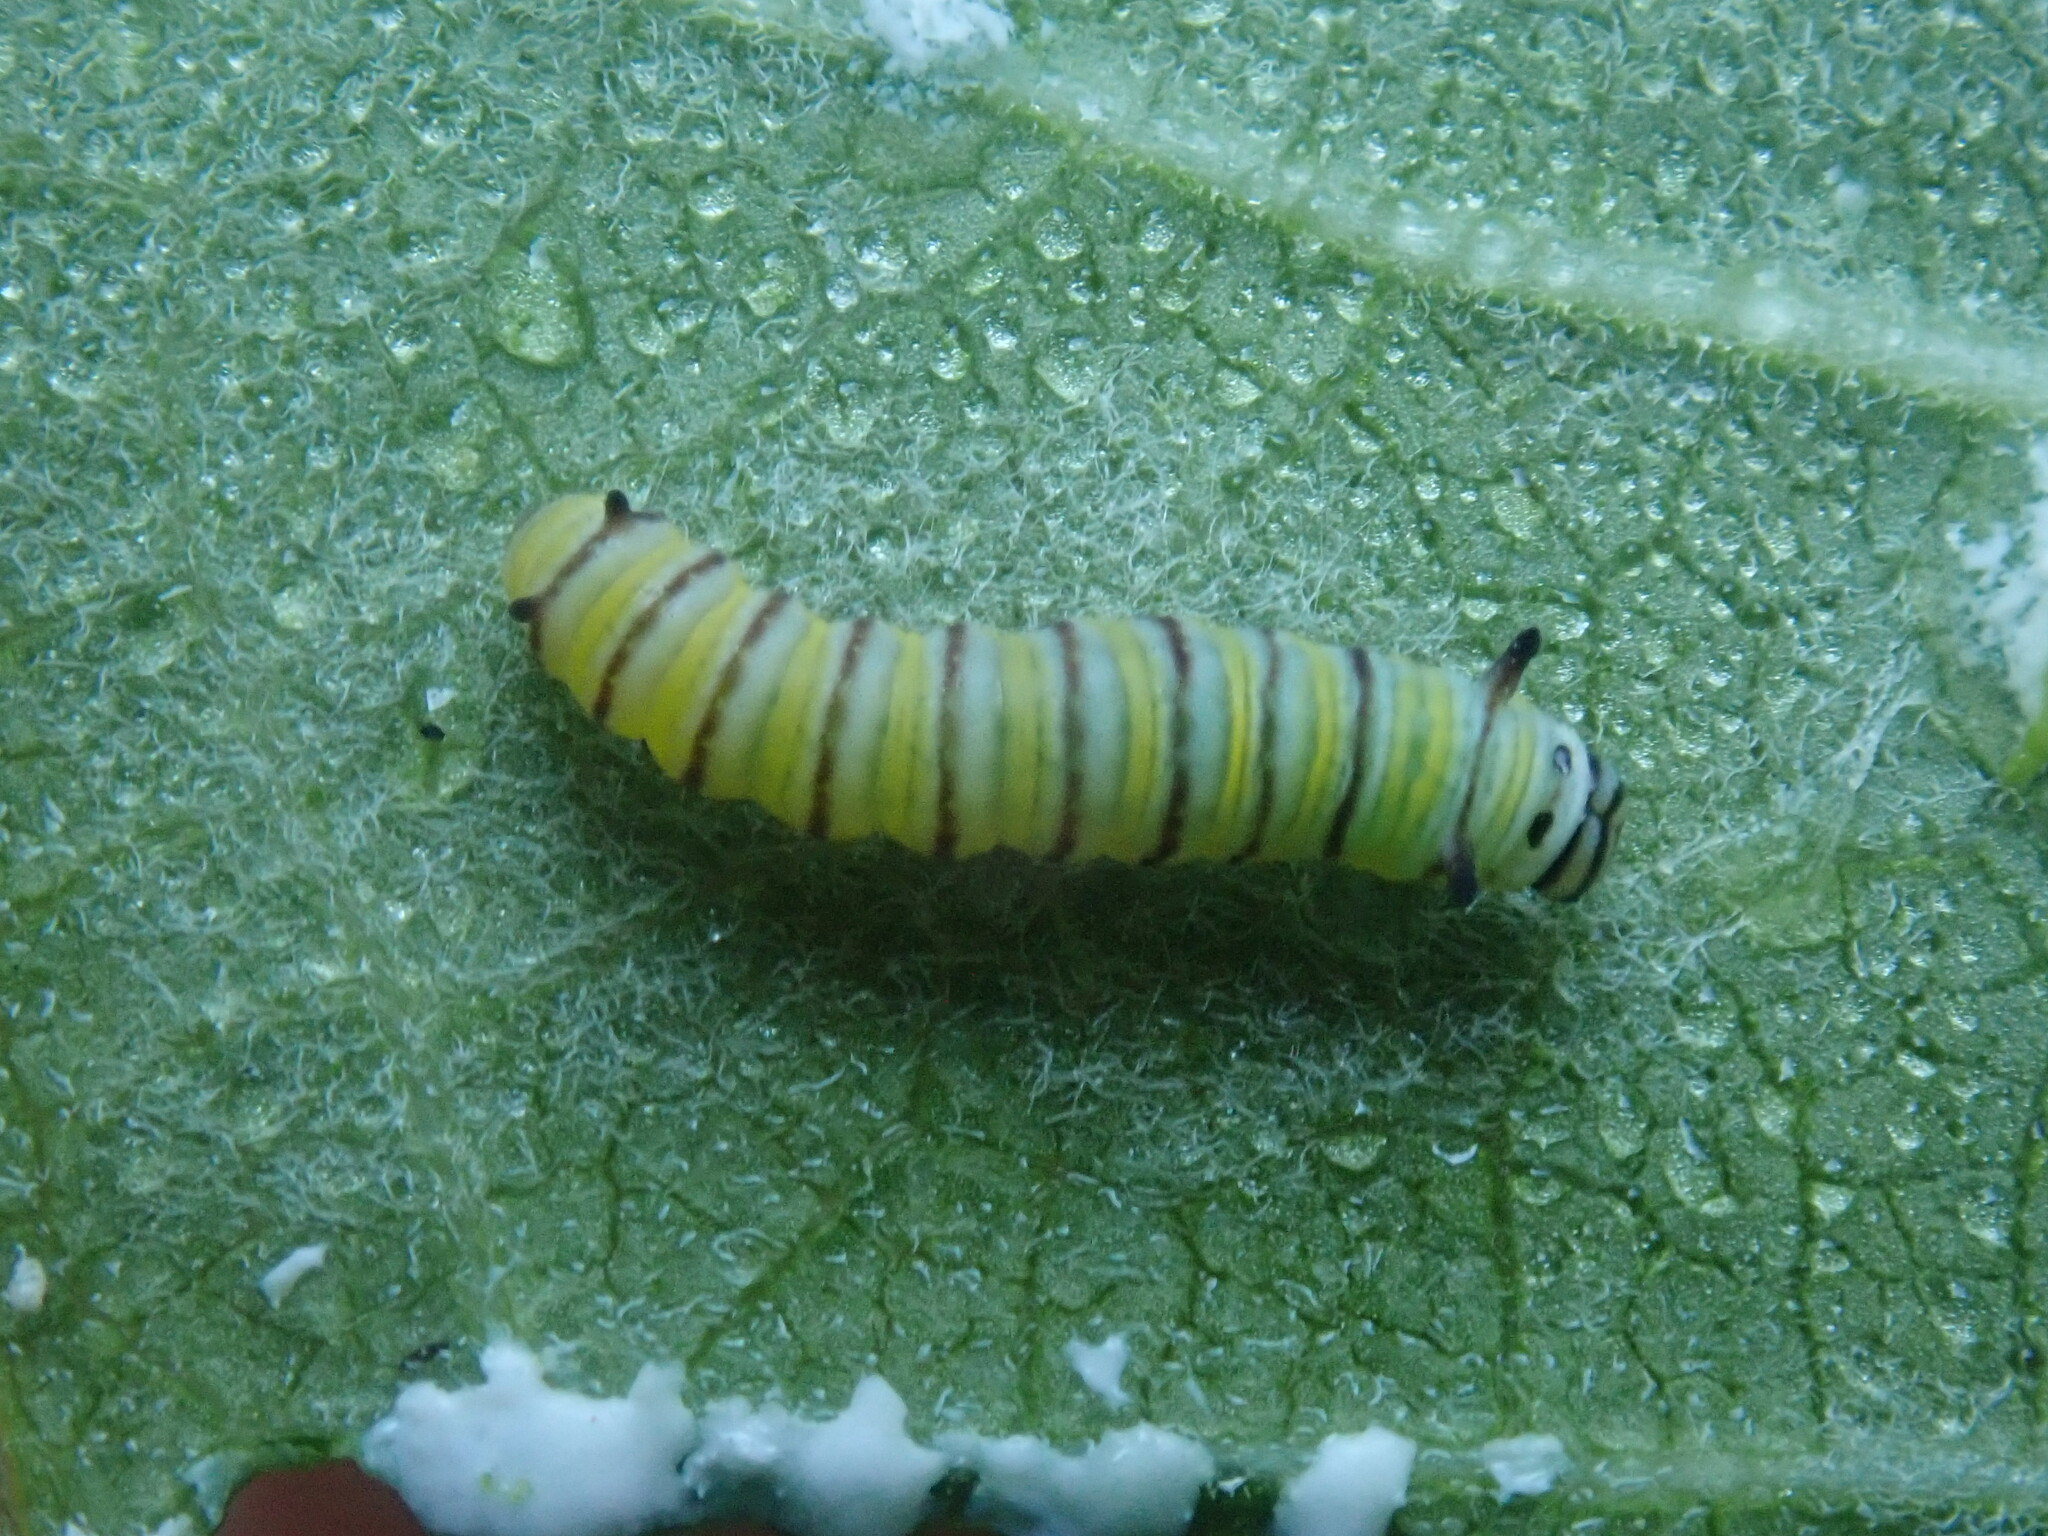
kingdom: Animalia
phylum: Arthropoda
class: Insecta
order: Lepidoptera
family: Nymphalidae
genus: Danaus
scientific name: Danaus plexippus
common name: Monarch
